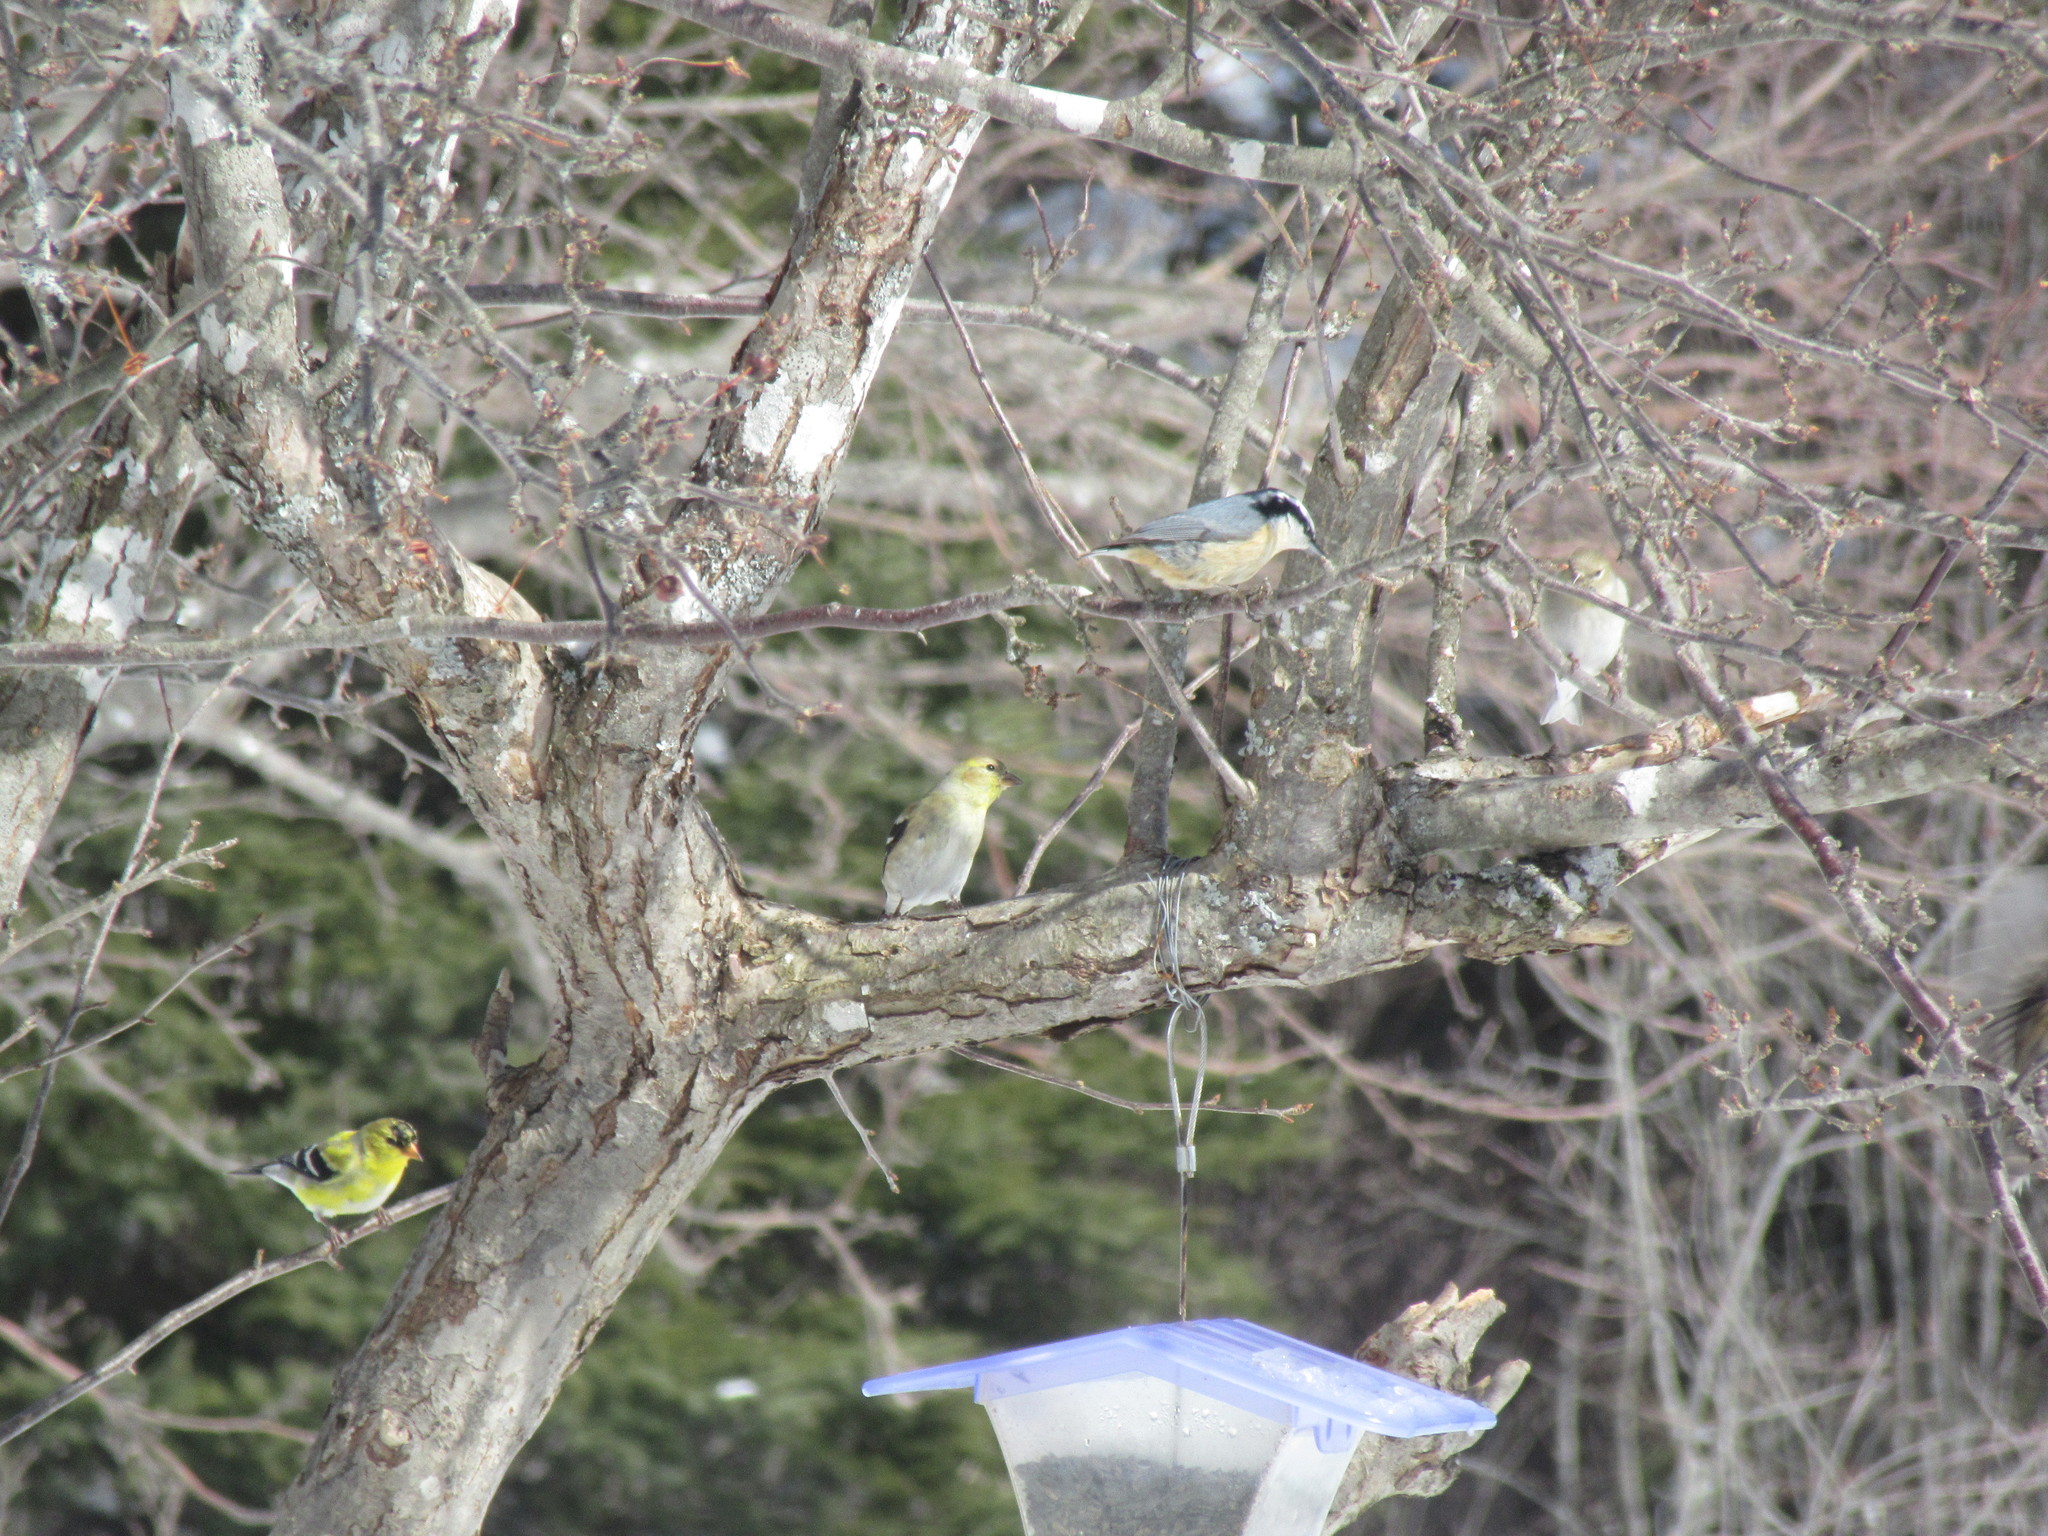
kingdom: Animalia
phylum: Chordata
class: Aves
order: Passeriformes
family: Sittidae
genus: Sitta
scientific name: Sitta canadensis
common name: Red-breasted nuthatch
